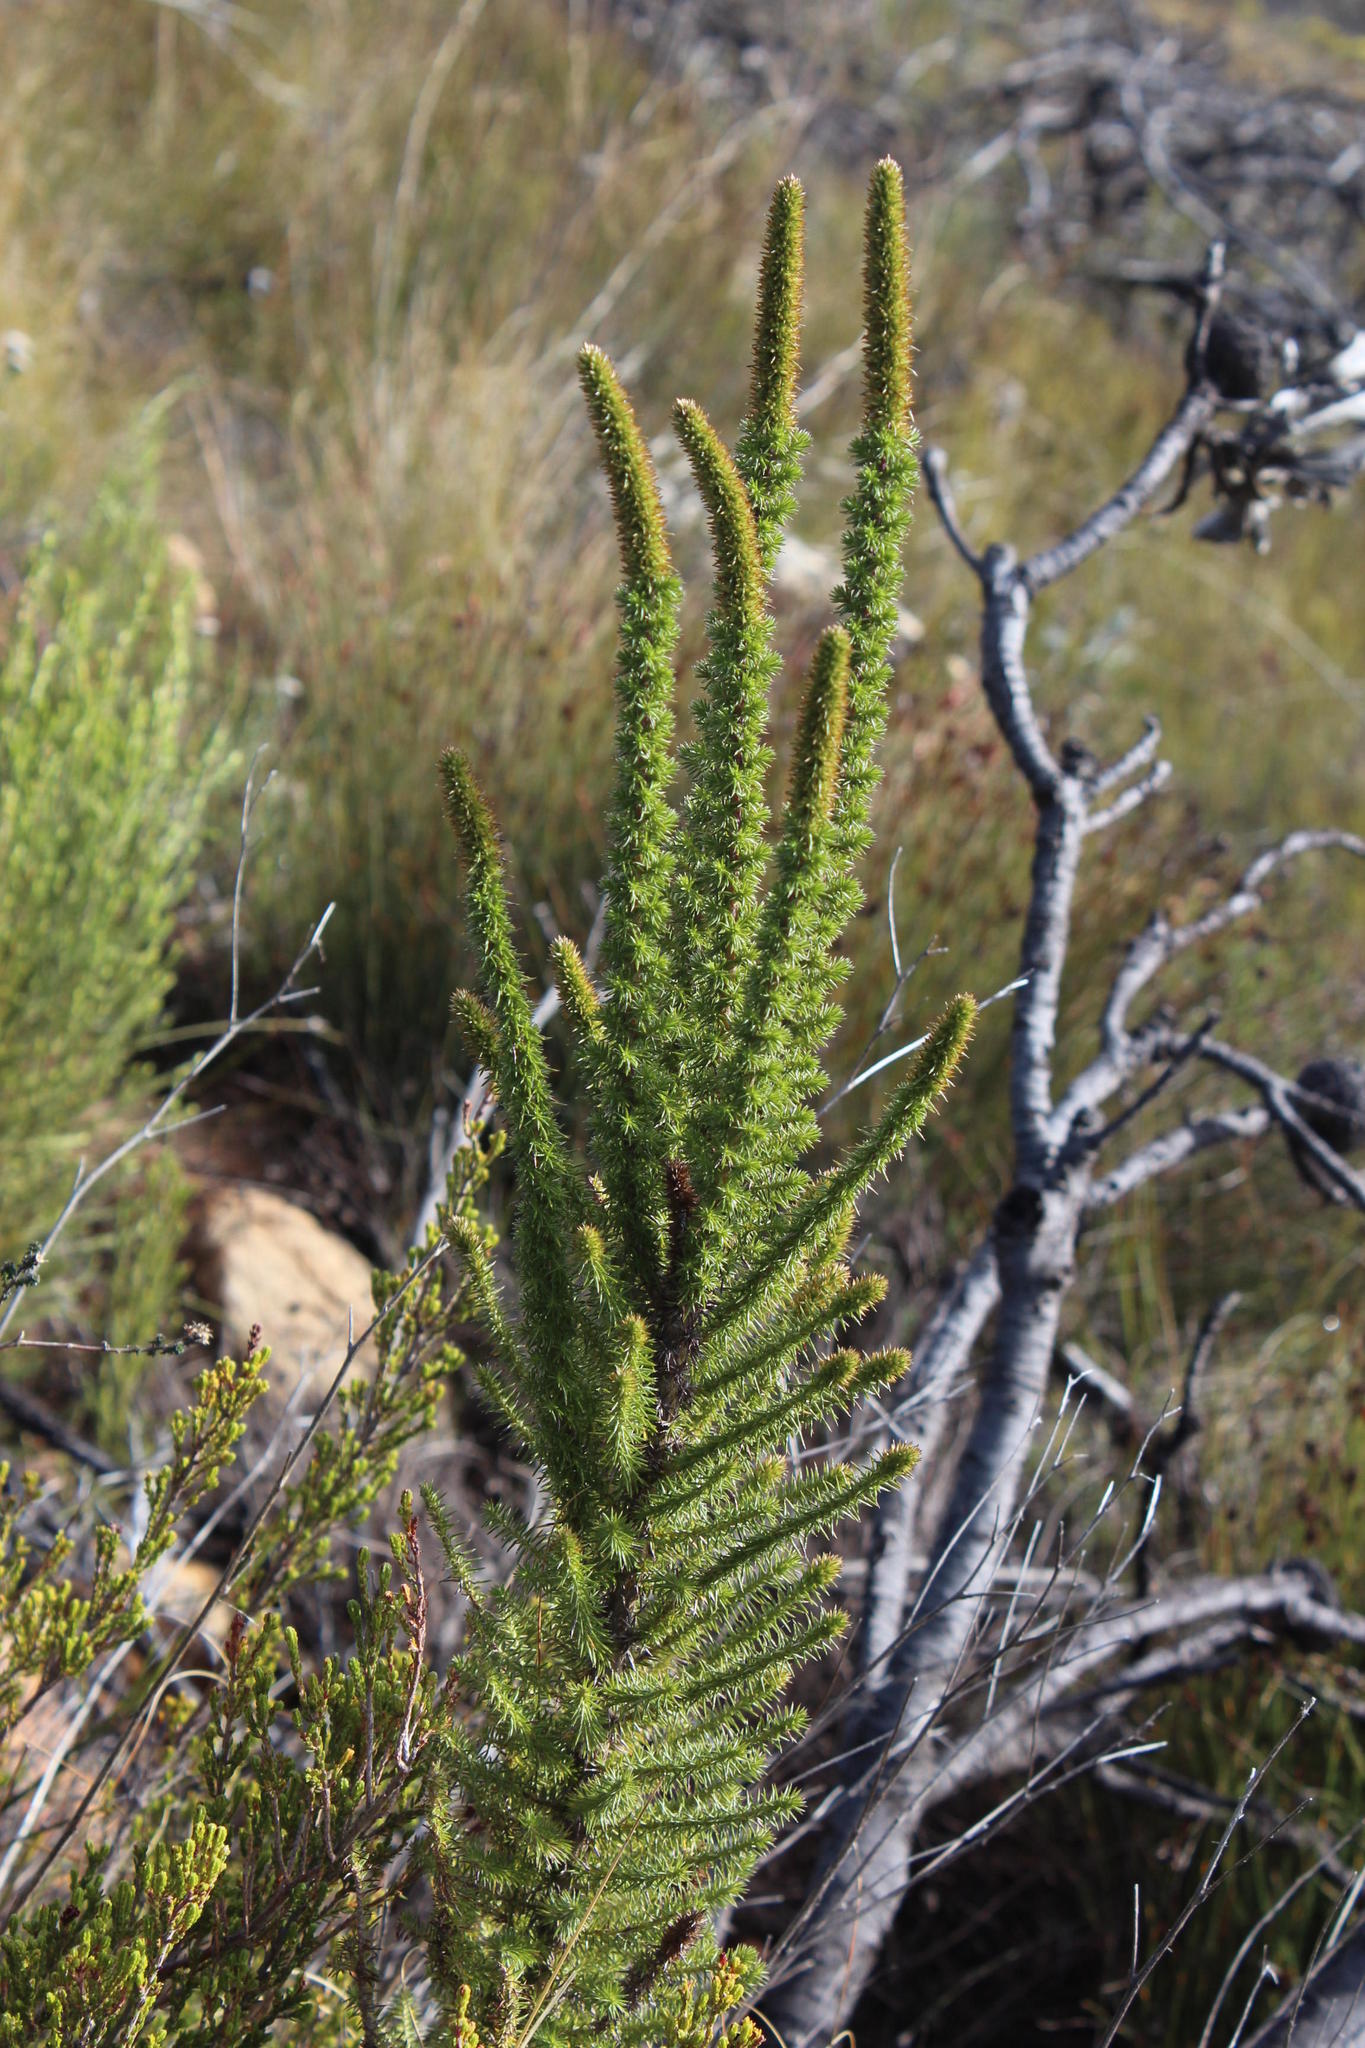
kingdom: Plantae
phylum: Tracheophyta
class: Magnoliopsida
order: Asterales
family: Asteraceae
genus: Stoebe
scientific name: Stoebe alopecuroides
